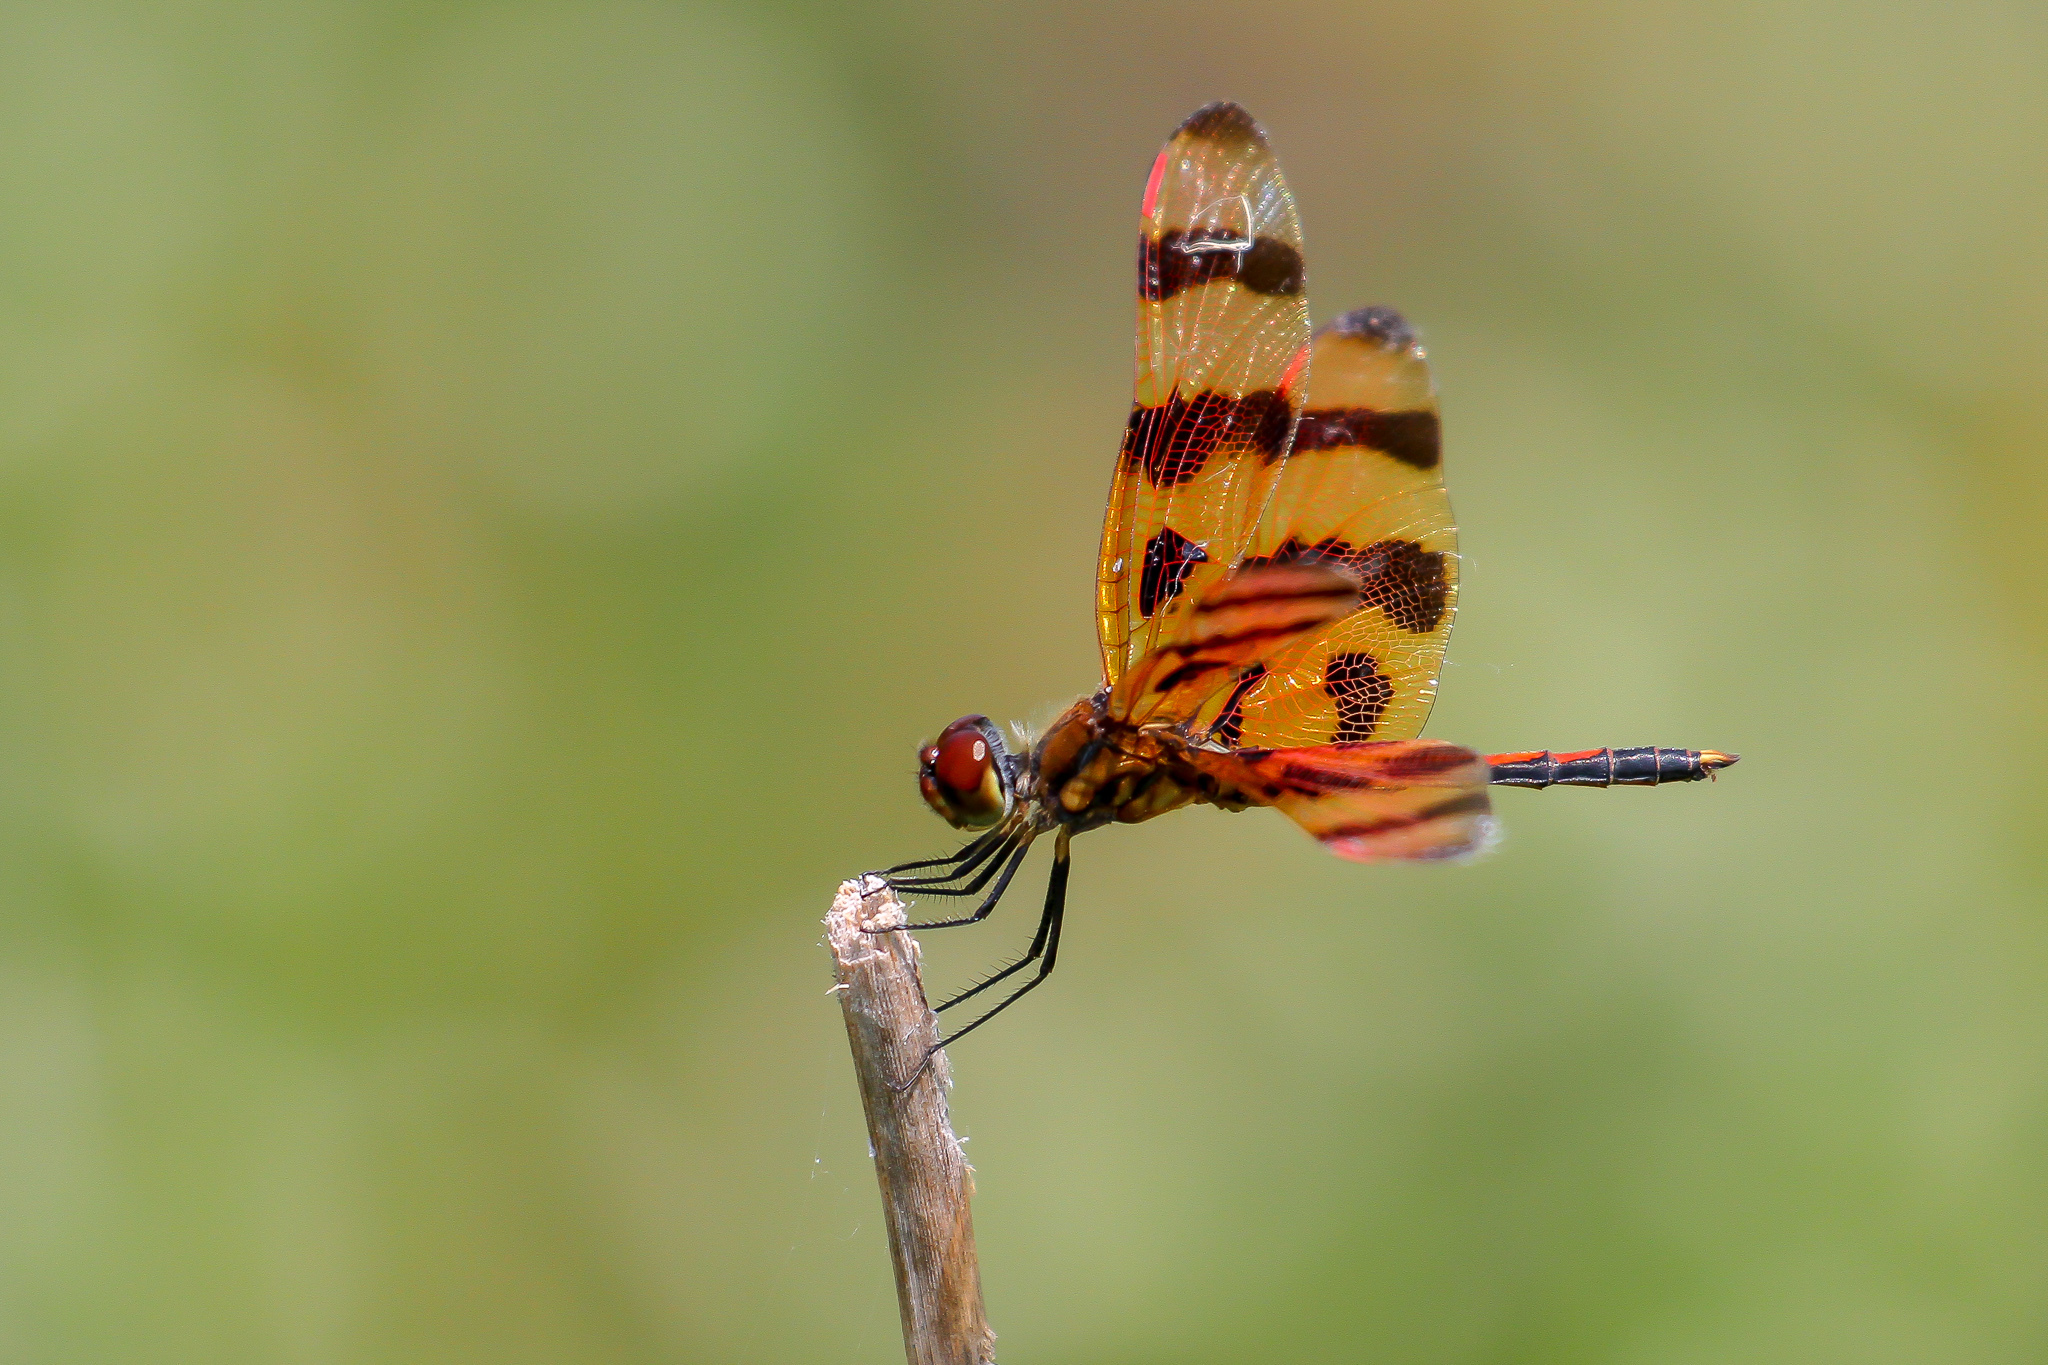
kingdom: Animalia
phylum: Arthropoda
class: Insecta
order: Odonata
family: Libellulidae
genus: Celithemis
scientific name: Celithemis eponina
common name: Halloween pennant
